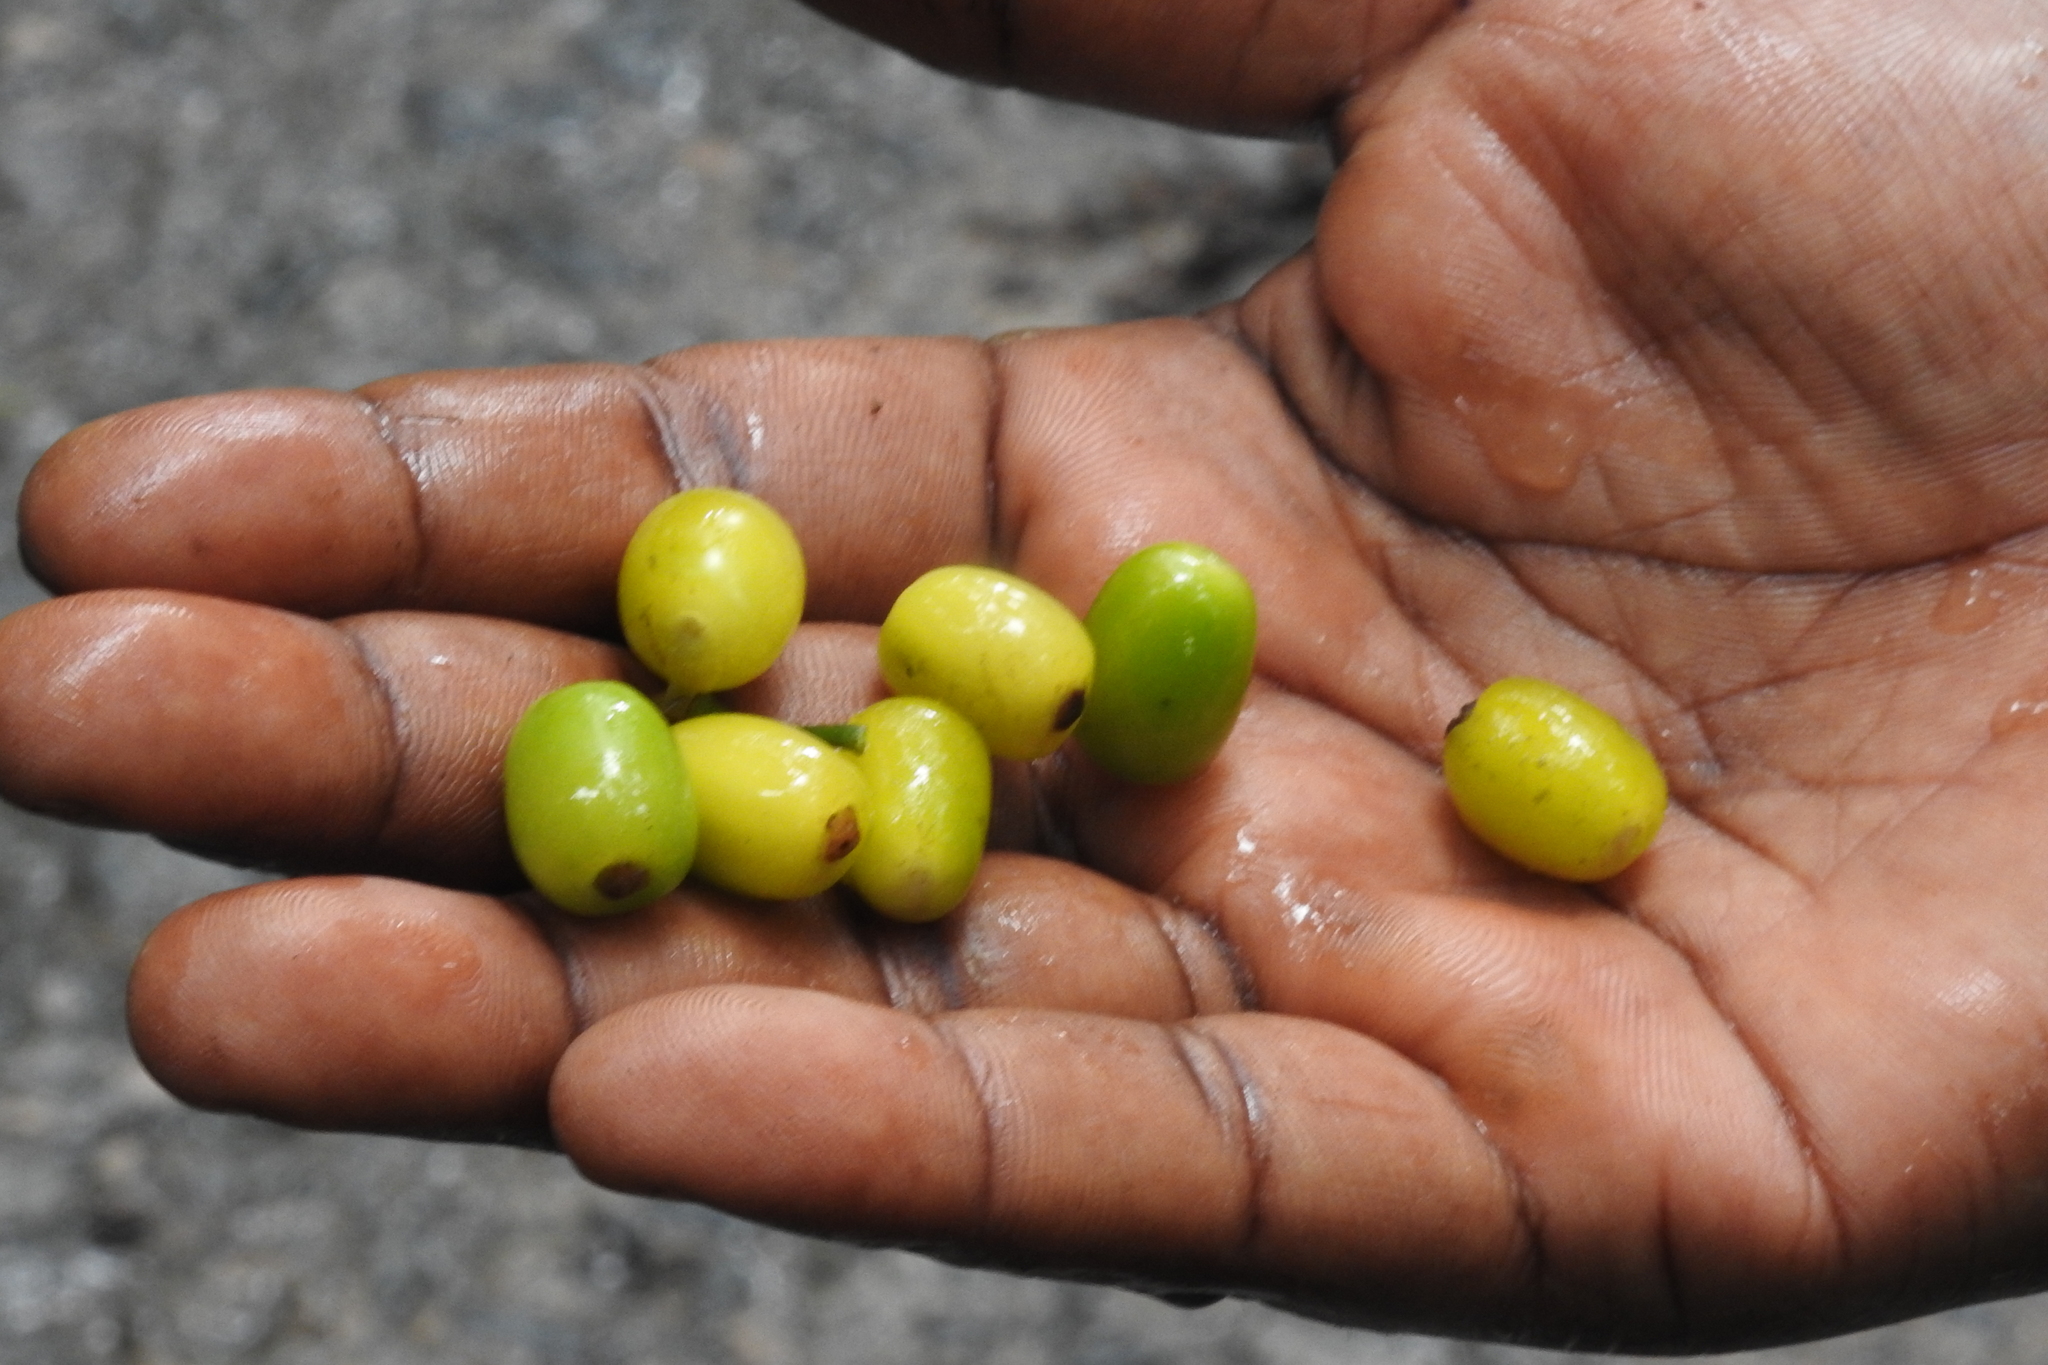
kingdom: Plantae
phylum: Tracheophyta
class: Magnoliopsida
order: Cardiopteridales
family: Stemonuraceae
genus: Gomphandra
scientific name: Gomphandra coriacea
